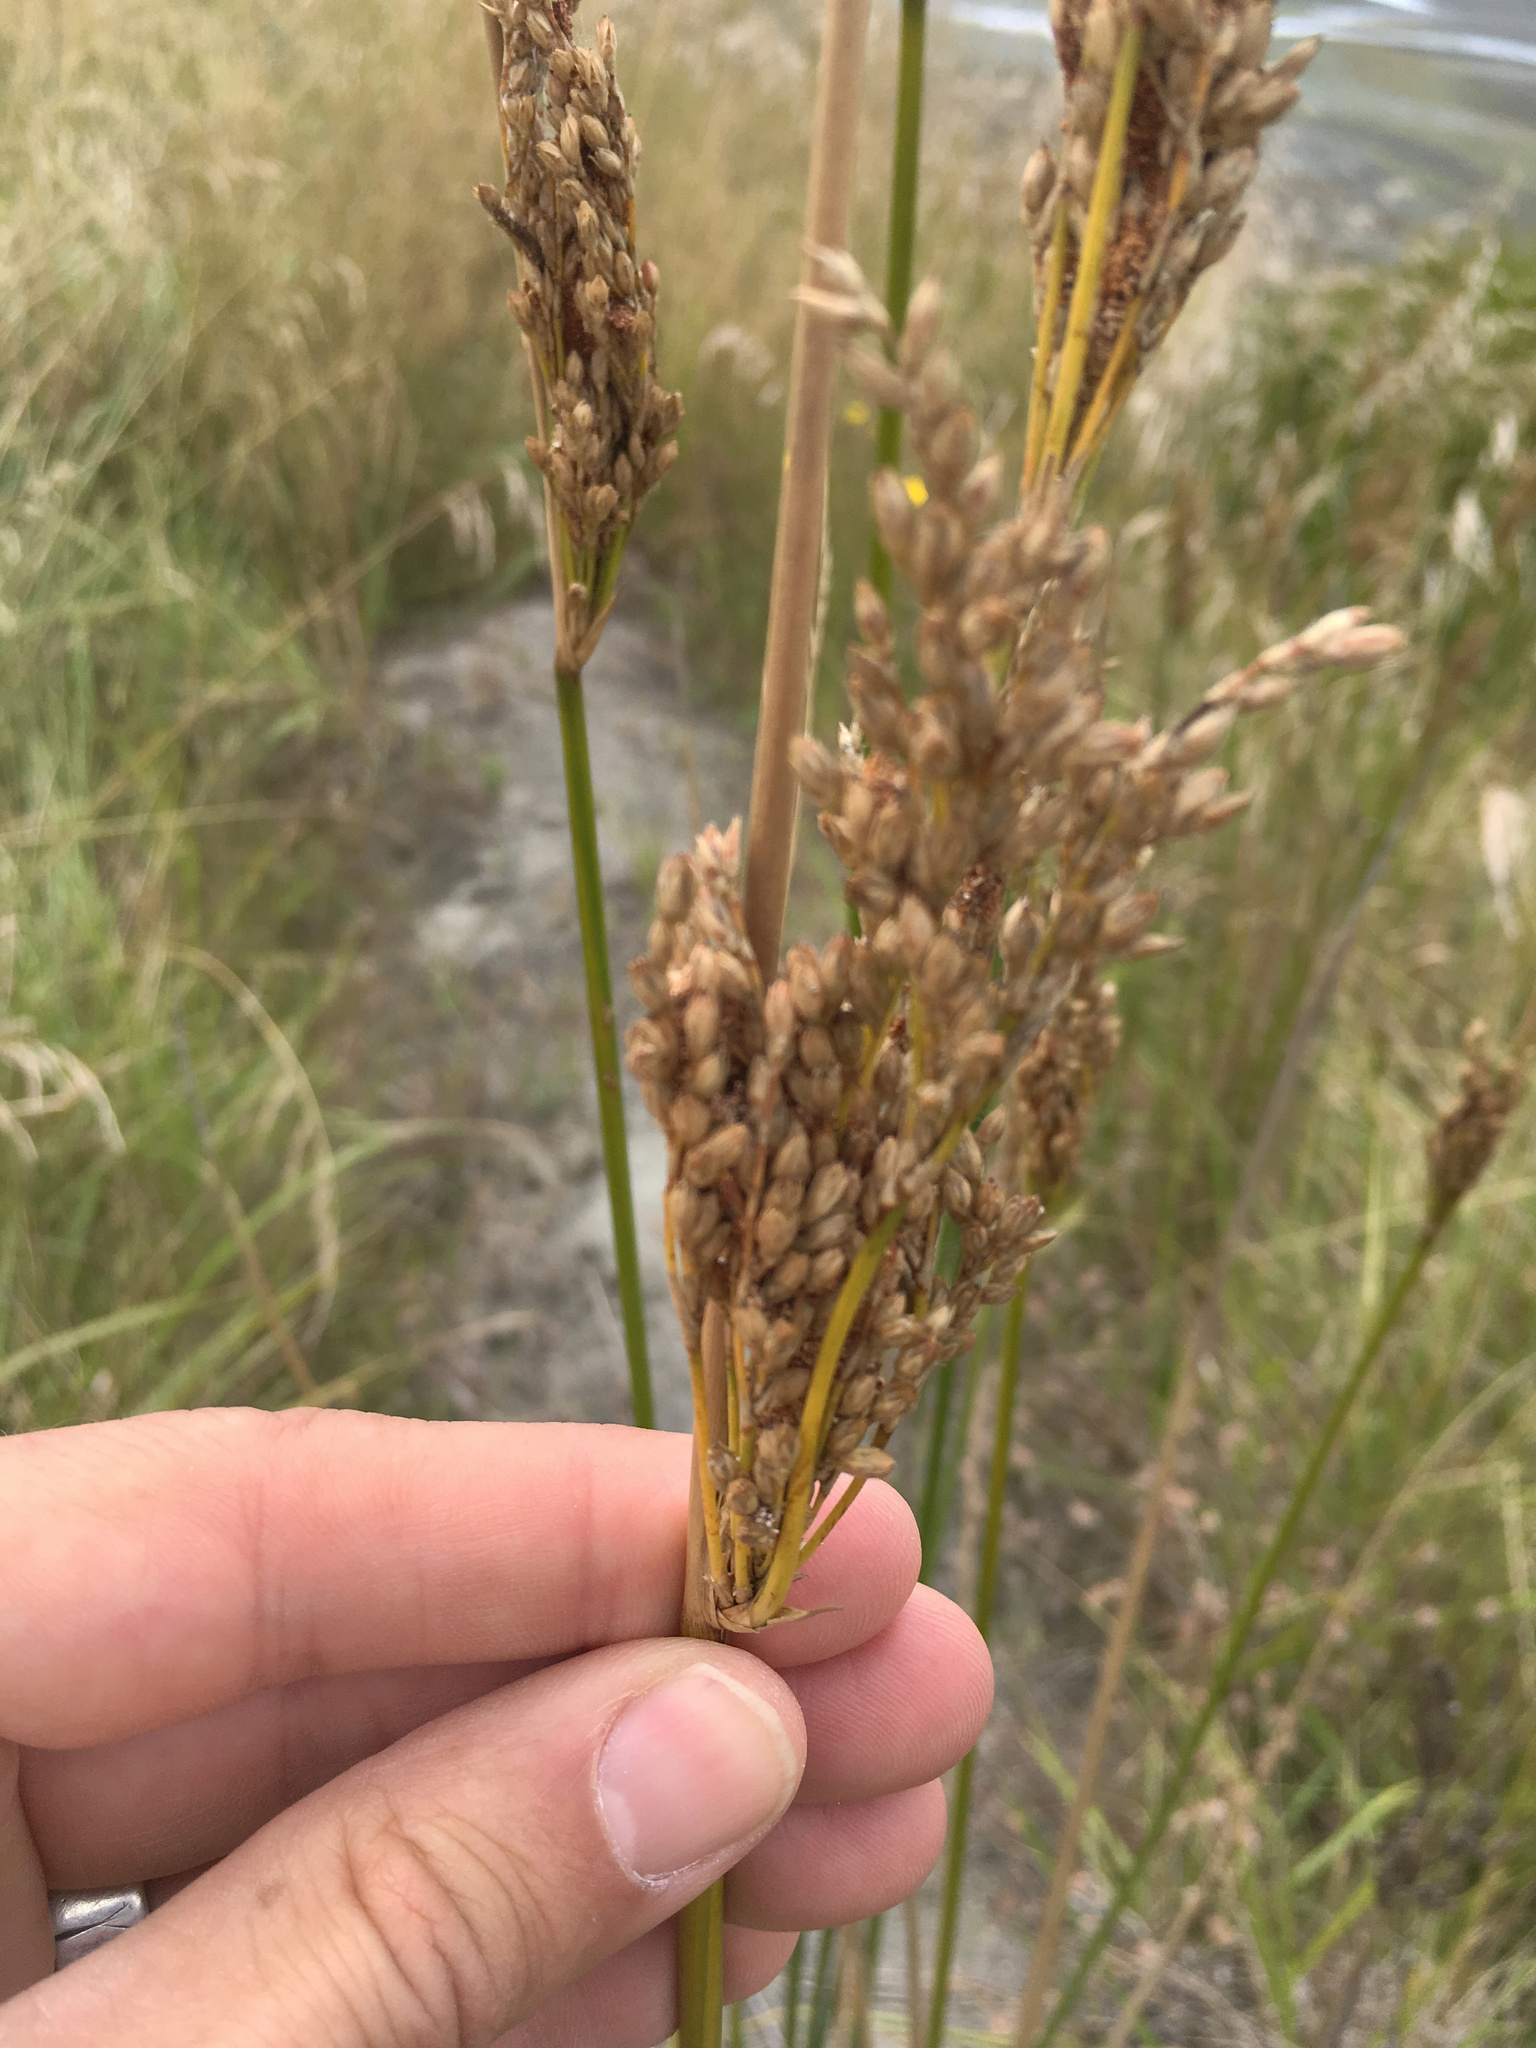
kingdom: Plantae
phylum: Tracheophyta
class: Liliopsida
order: Poales
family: Juncaceae
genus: Juncus
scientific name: Juncus kraussii
